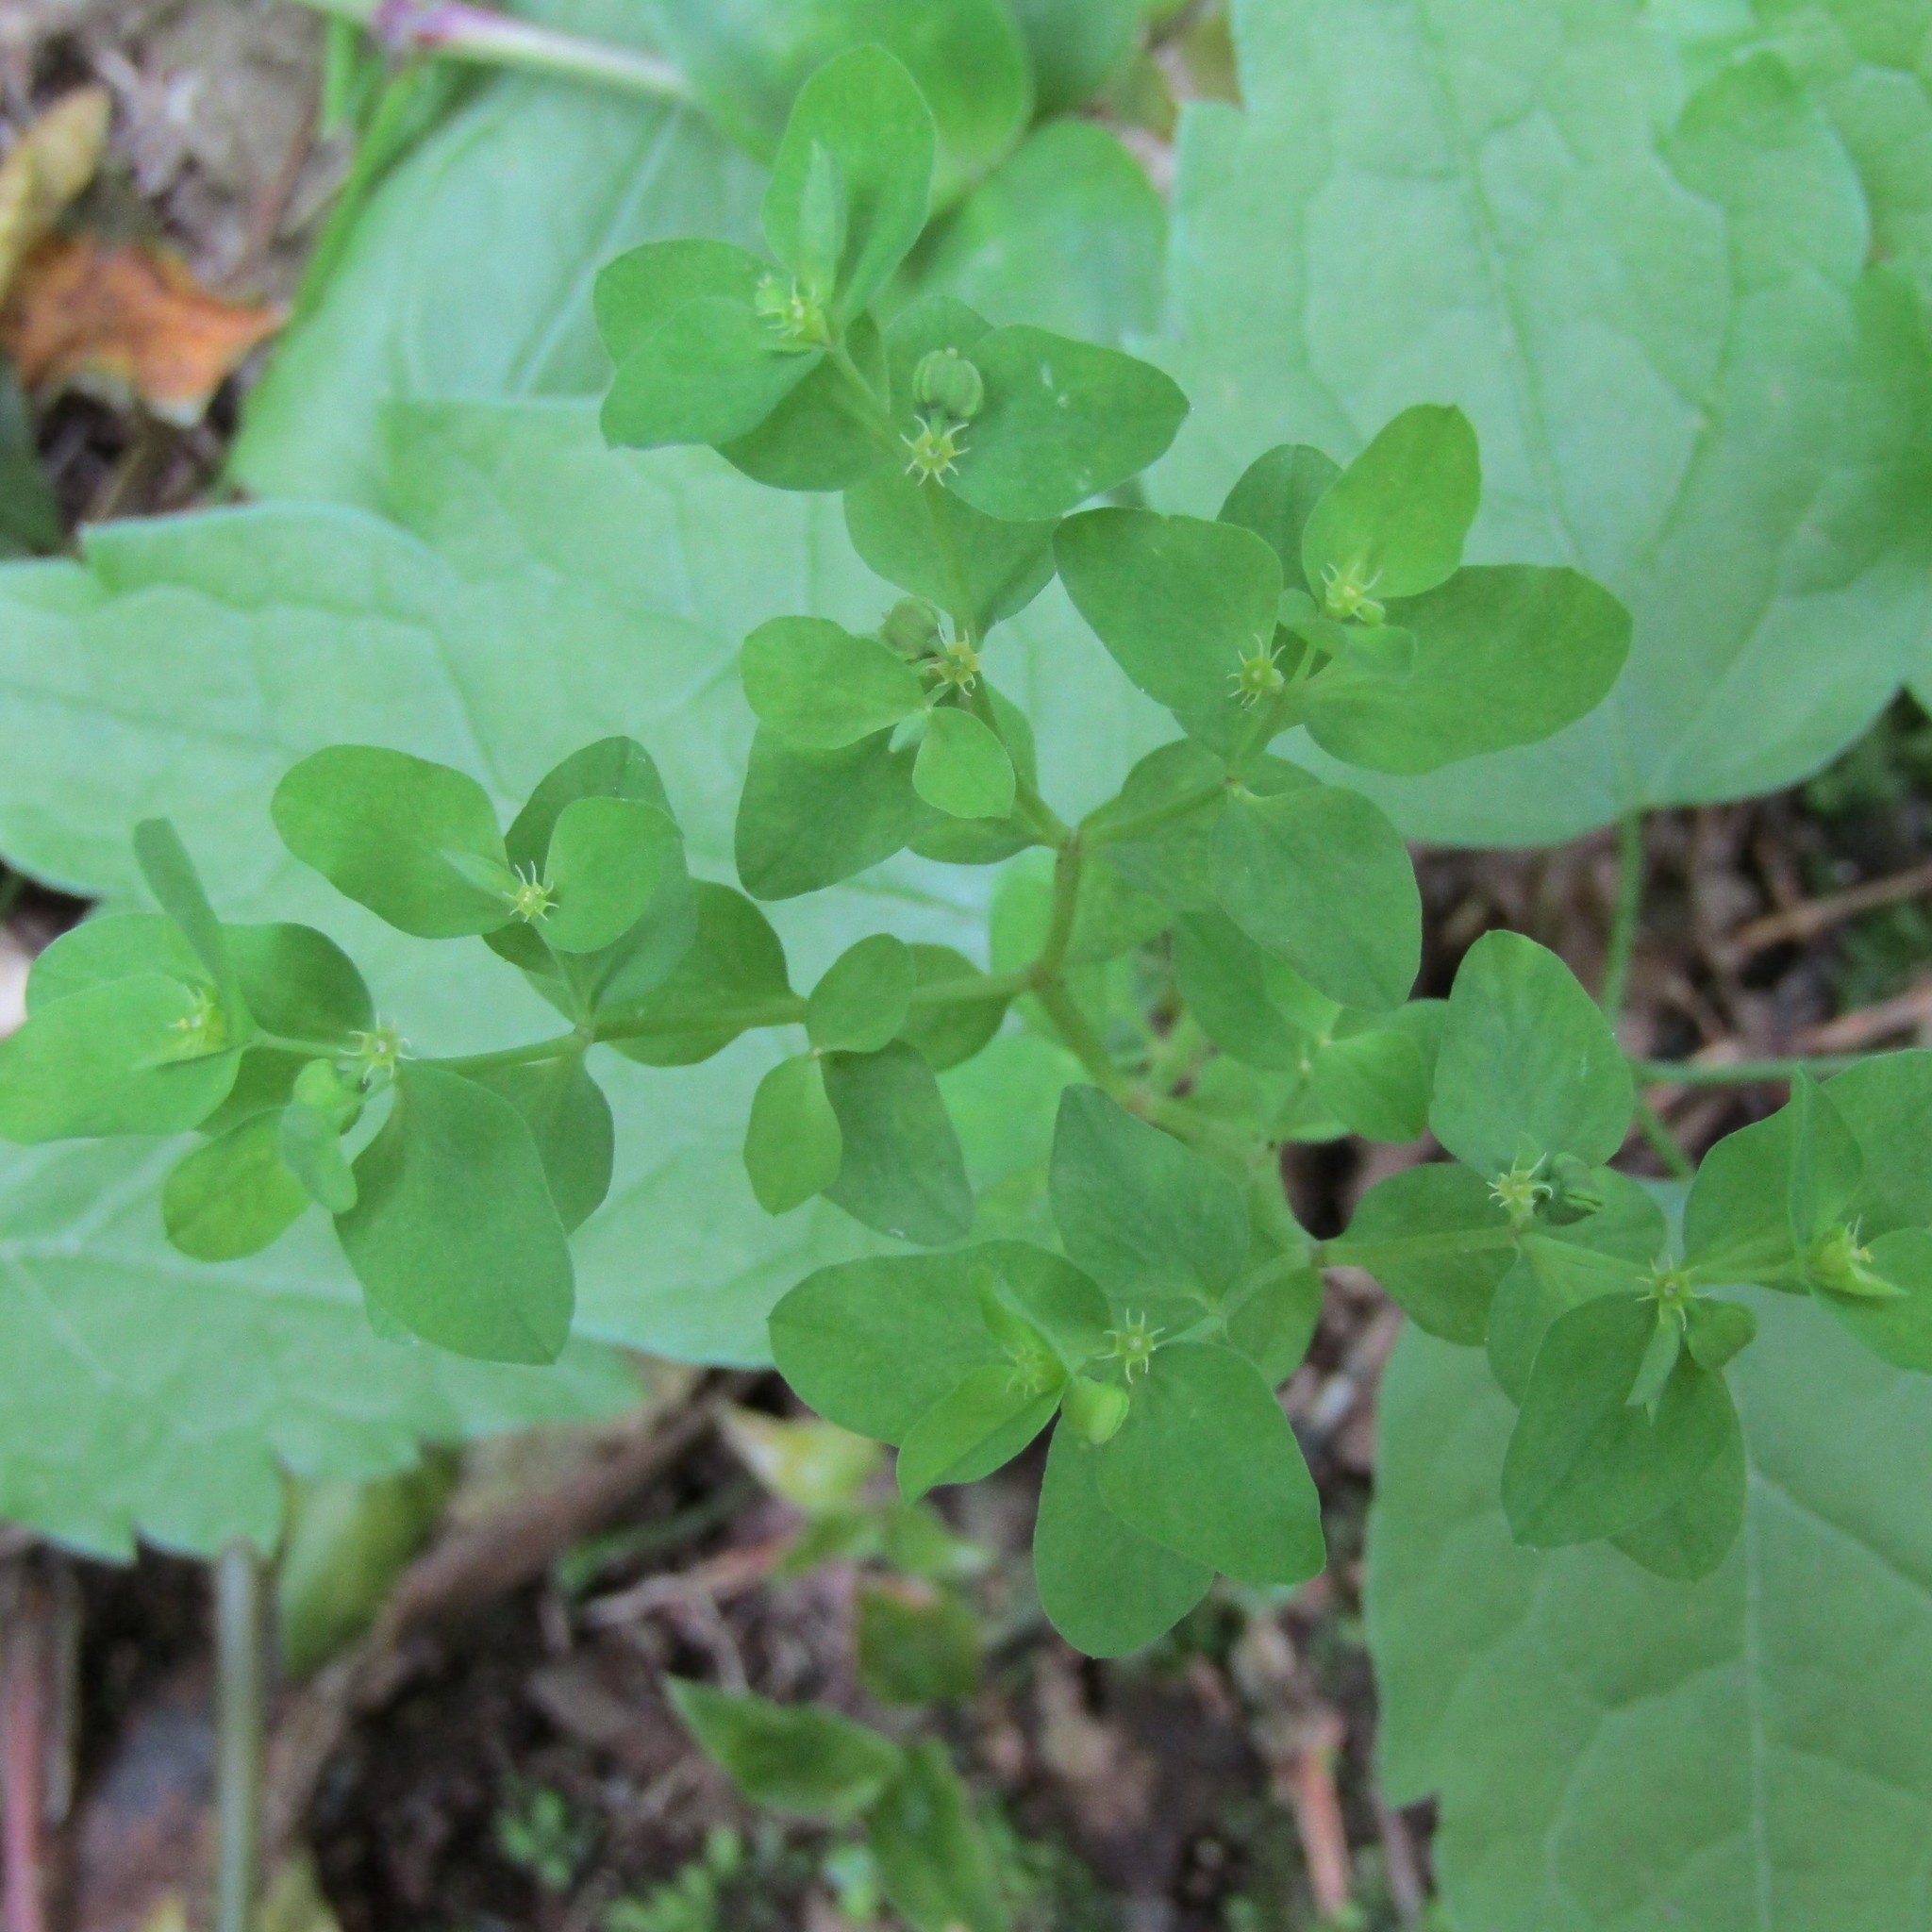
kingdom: Plantae
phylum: Tracheophyta
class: Magnoliopsida
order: Malpighiales
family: Euphorbiaceae
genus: Euphorbia
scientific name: Euphorbia peplus
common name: Petty spurge
